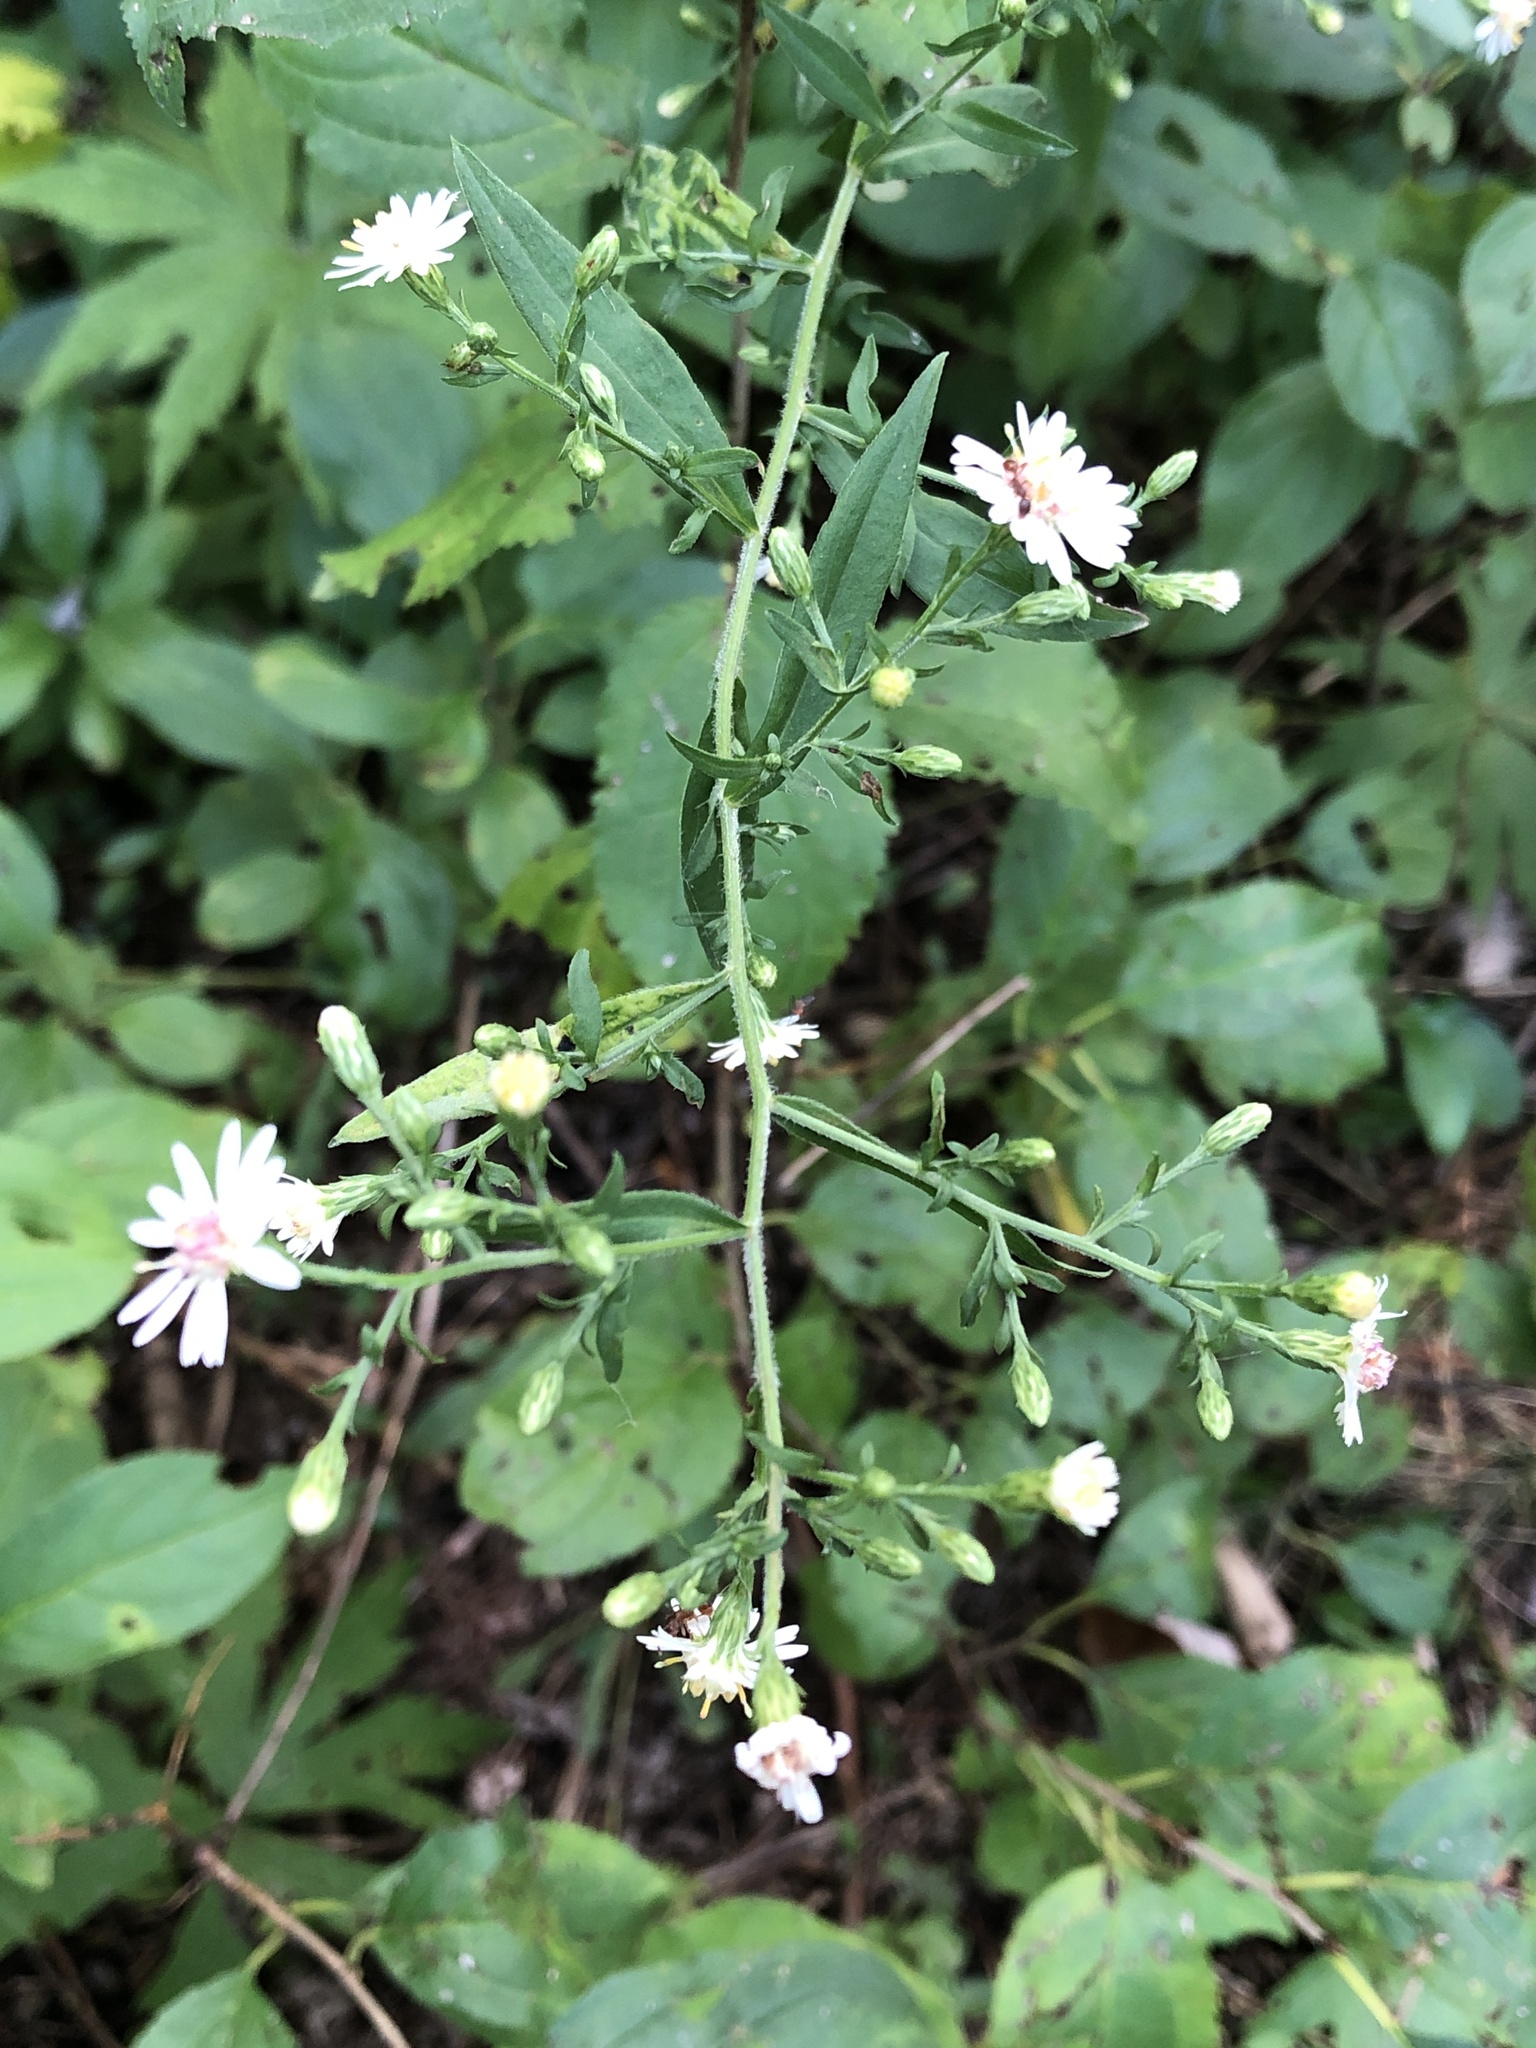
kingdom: Plantae
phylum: Tracheophyta
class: Magnoliopsida
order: Asterales
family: Asteraceae
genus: Symphyotrichum
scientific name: Symphyotrichum lateriflorum
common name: Calico aster
